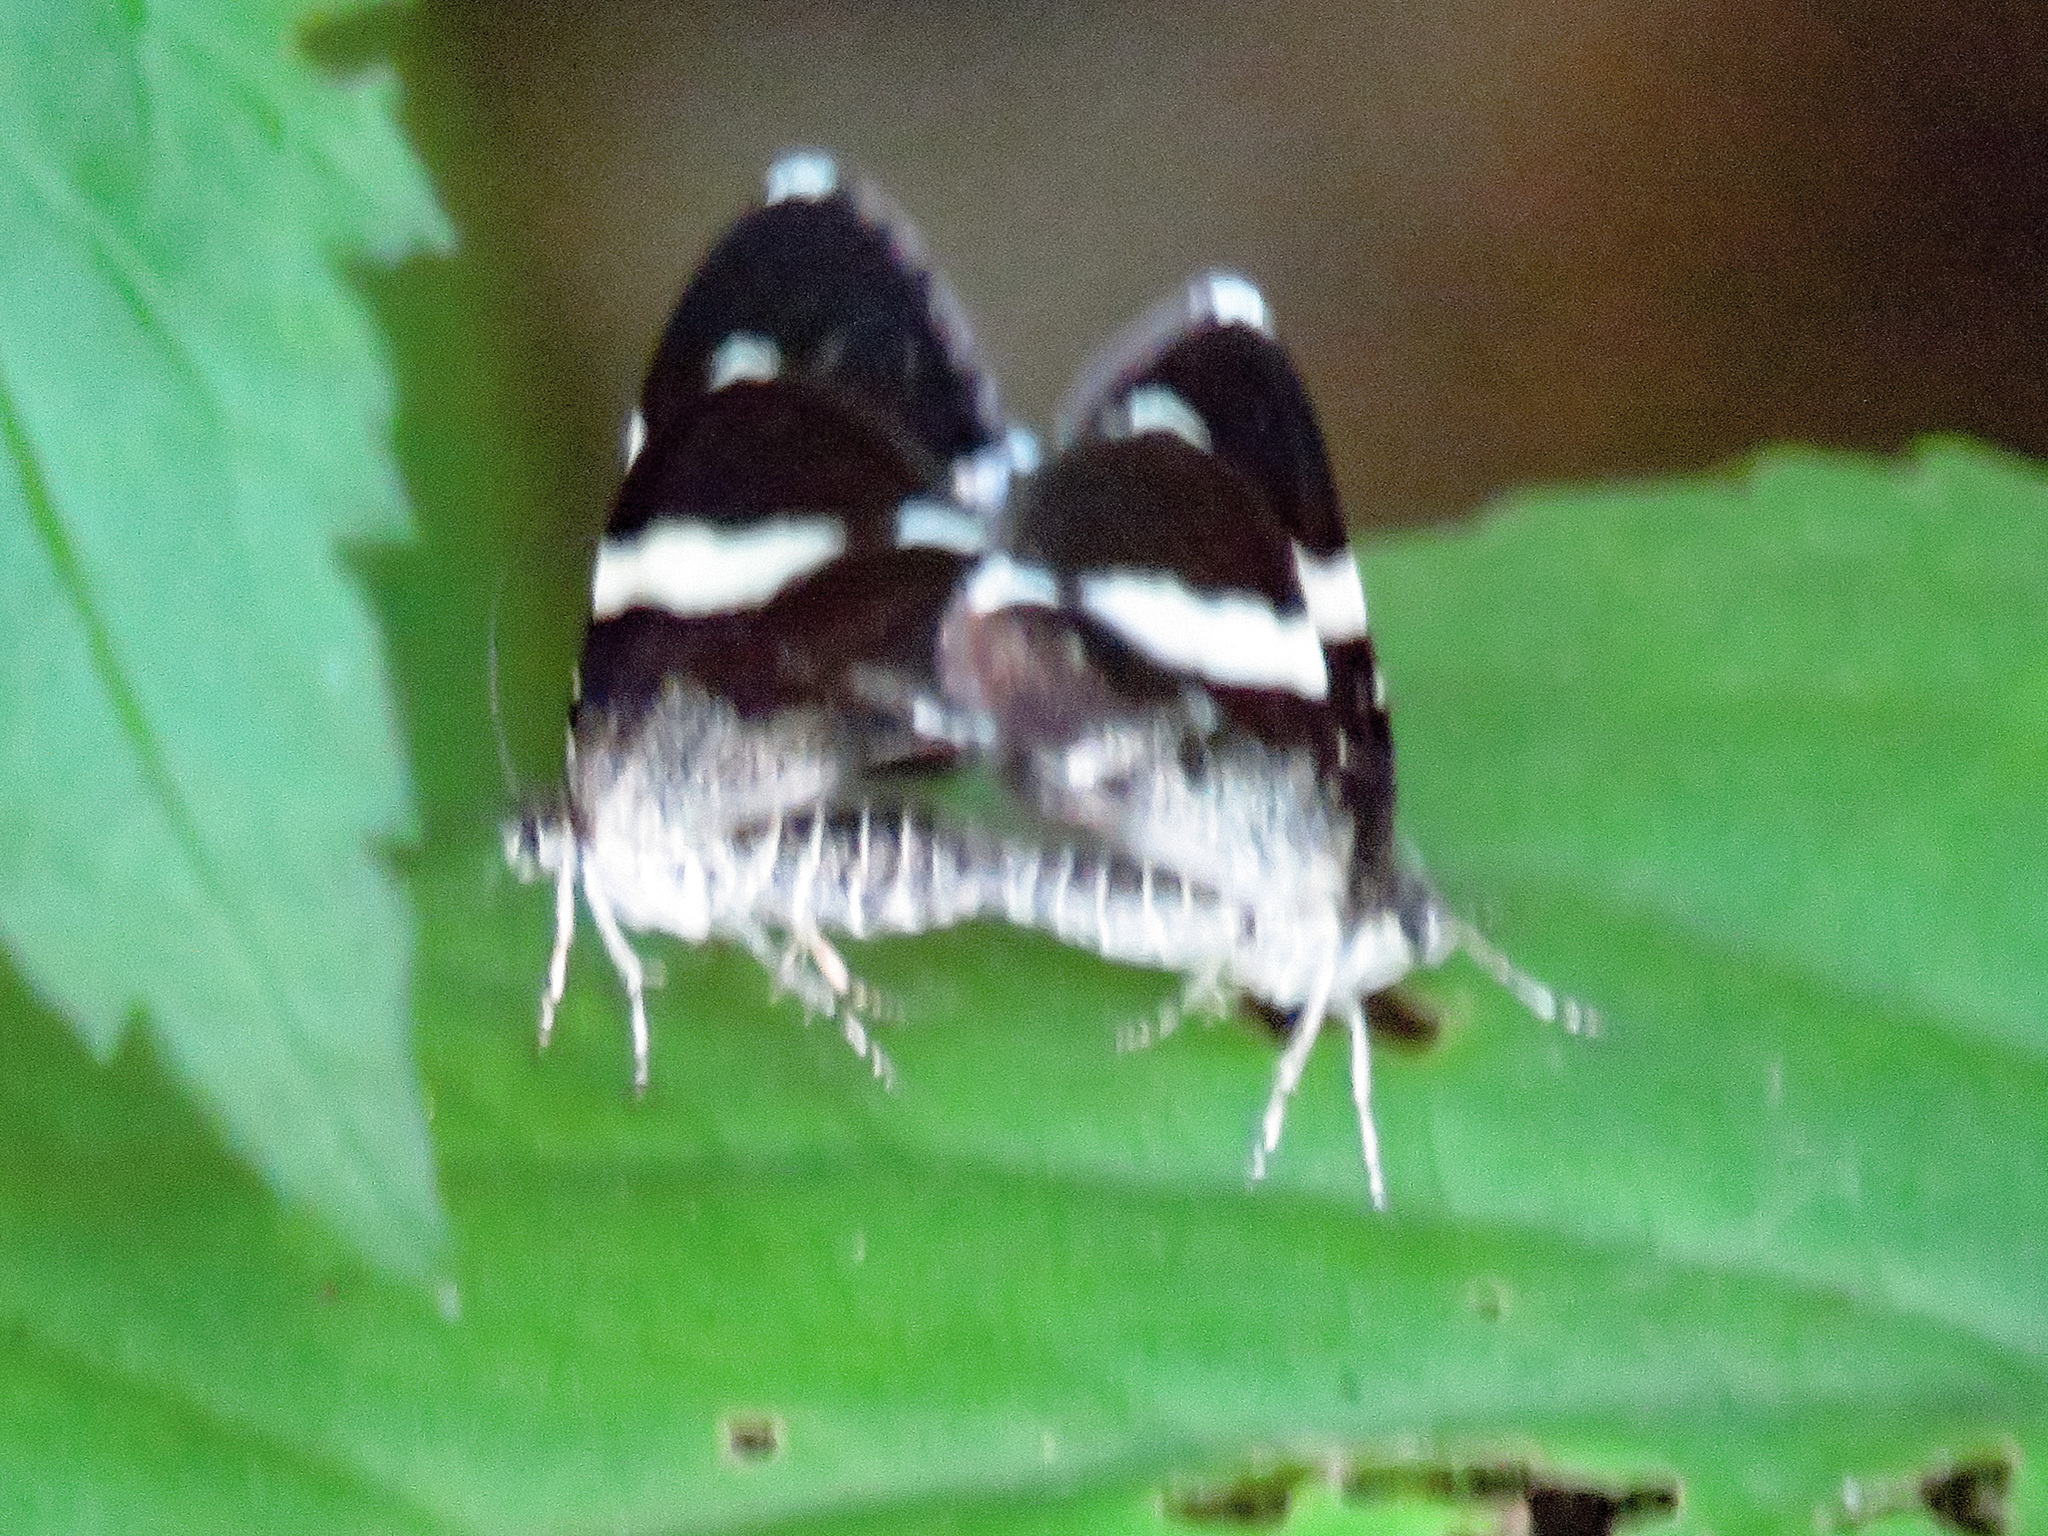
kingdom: Animalia
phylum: Arthropoda
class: Insecta
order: Lepidoptera
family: Geometridae
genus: Trichodezia
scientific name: Trichodezia albovittata
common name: White striped black
